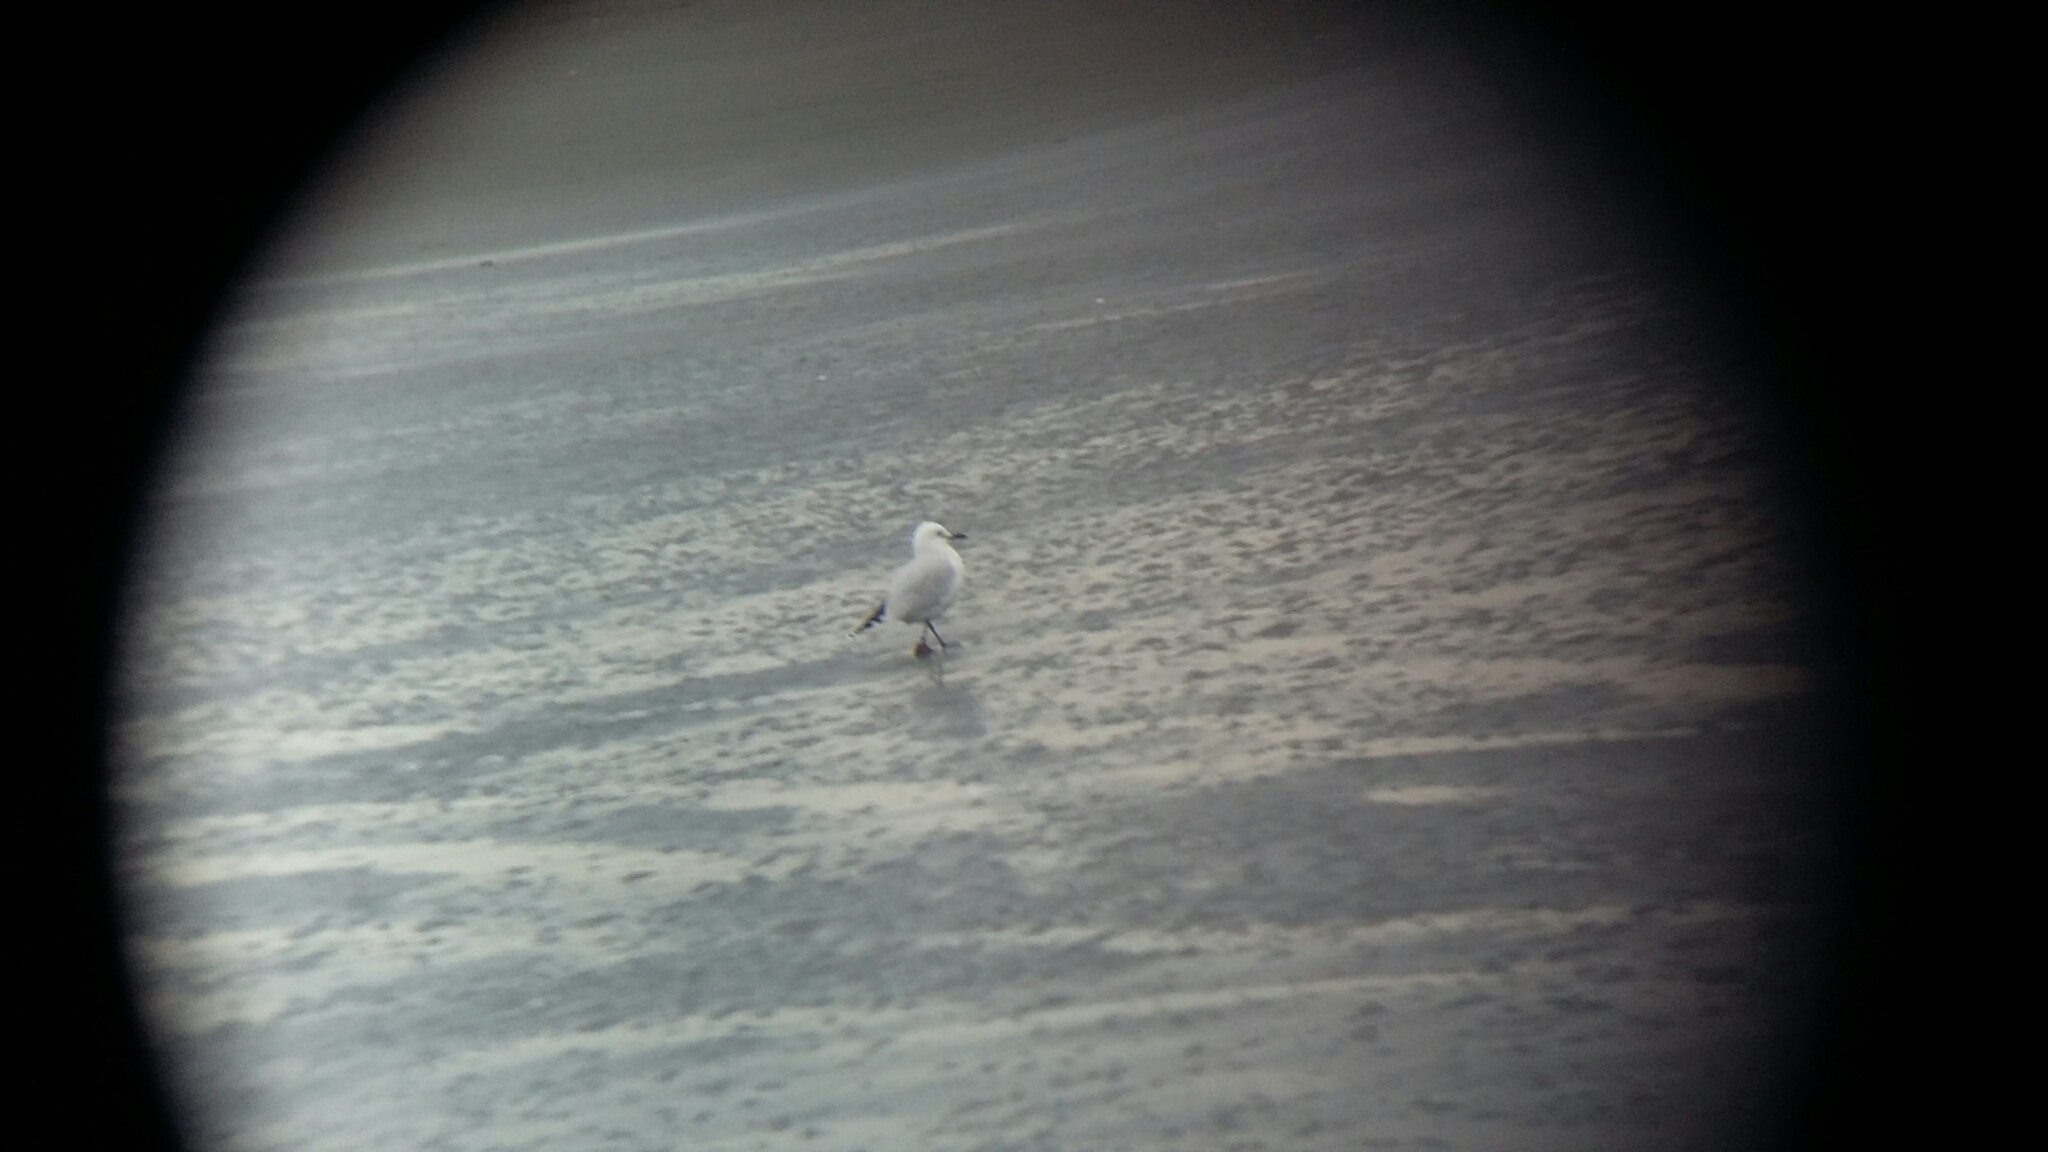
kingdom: Animalia
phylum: Chordata
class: Aves
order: Charadriiformes
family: Laridae
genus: Chroicocephalus
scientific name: Chroicocephalus bulleri
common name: Black-billed gull
